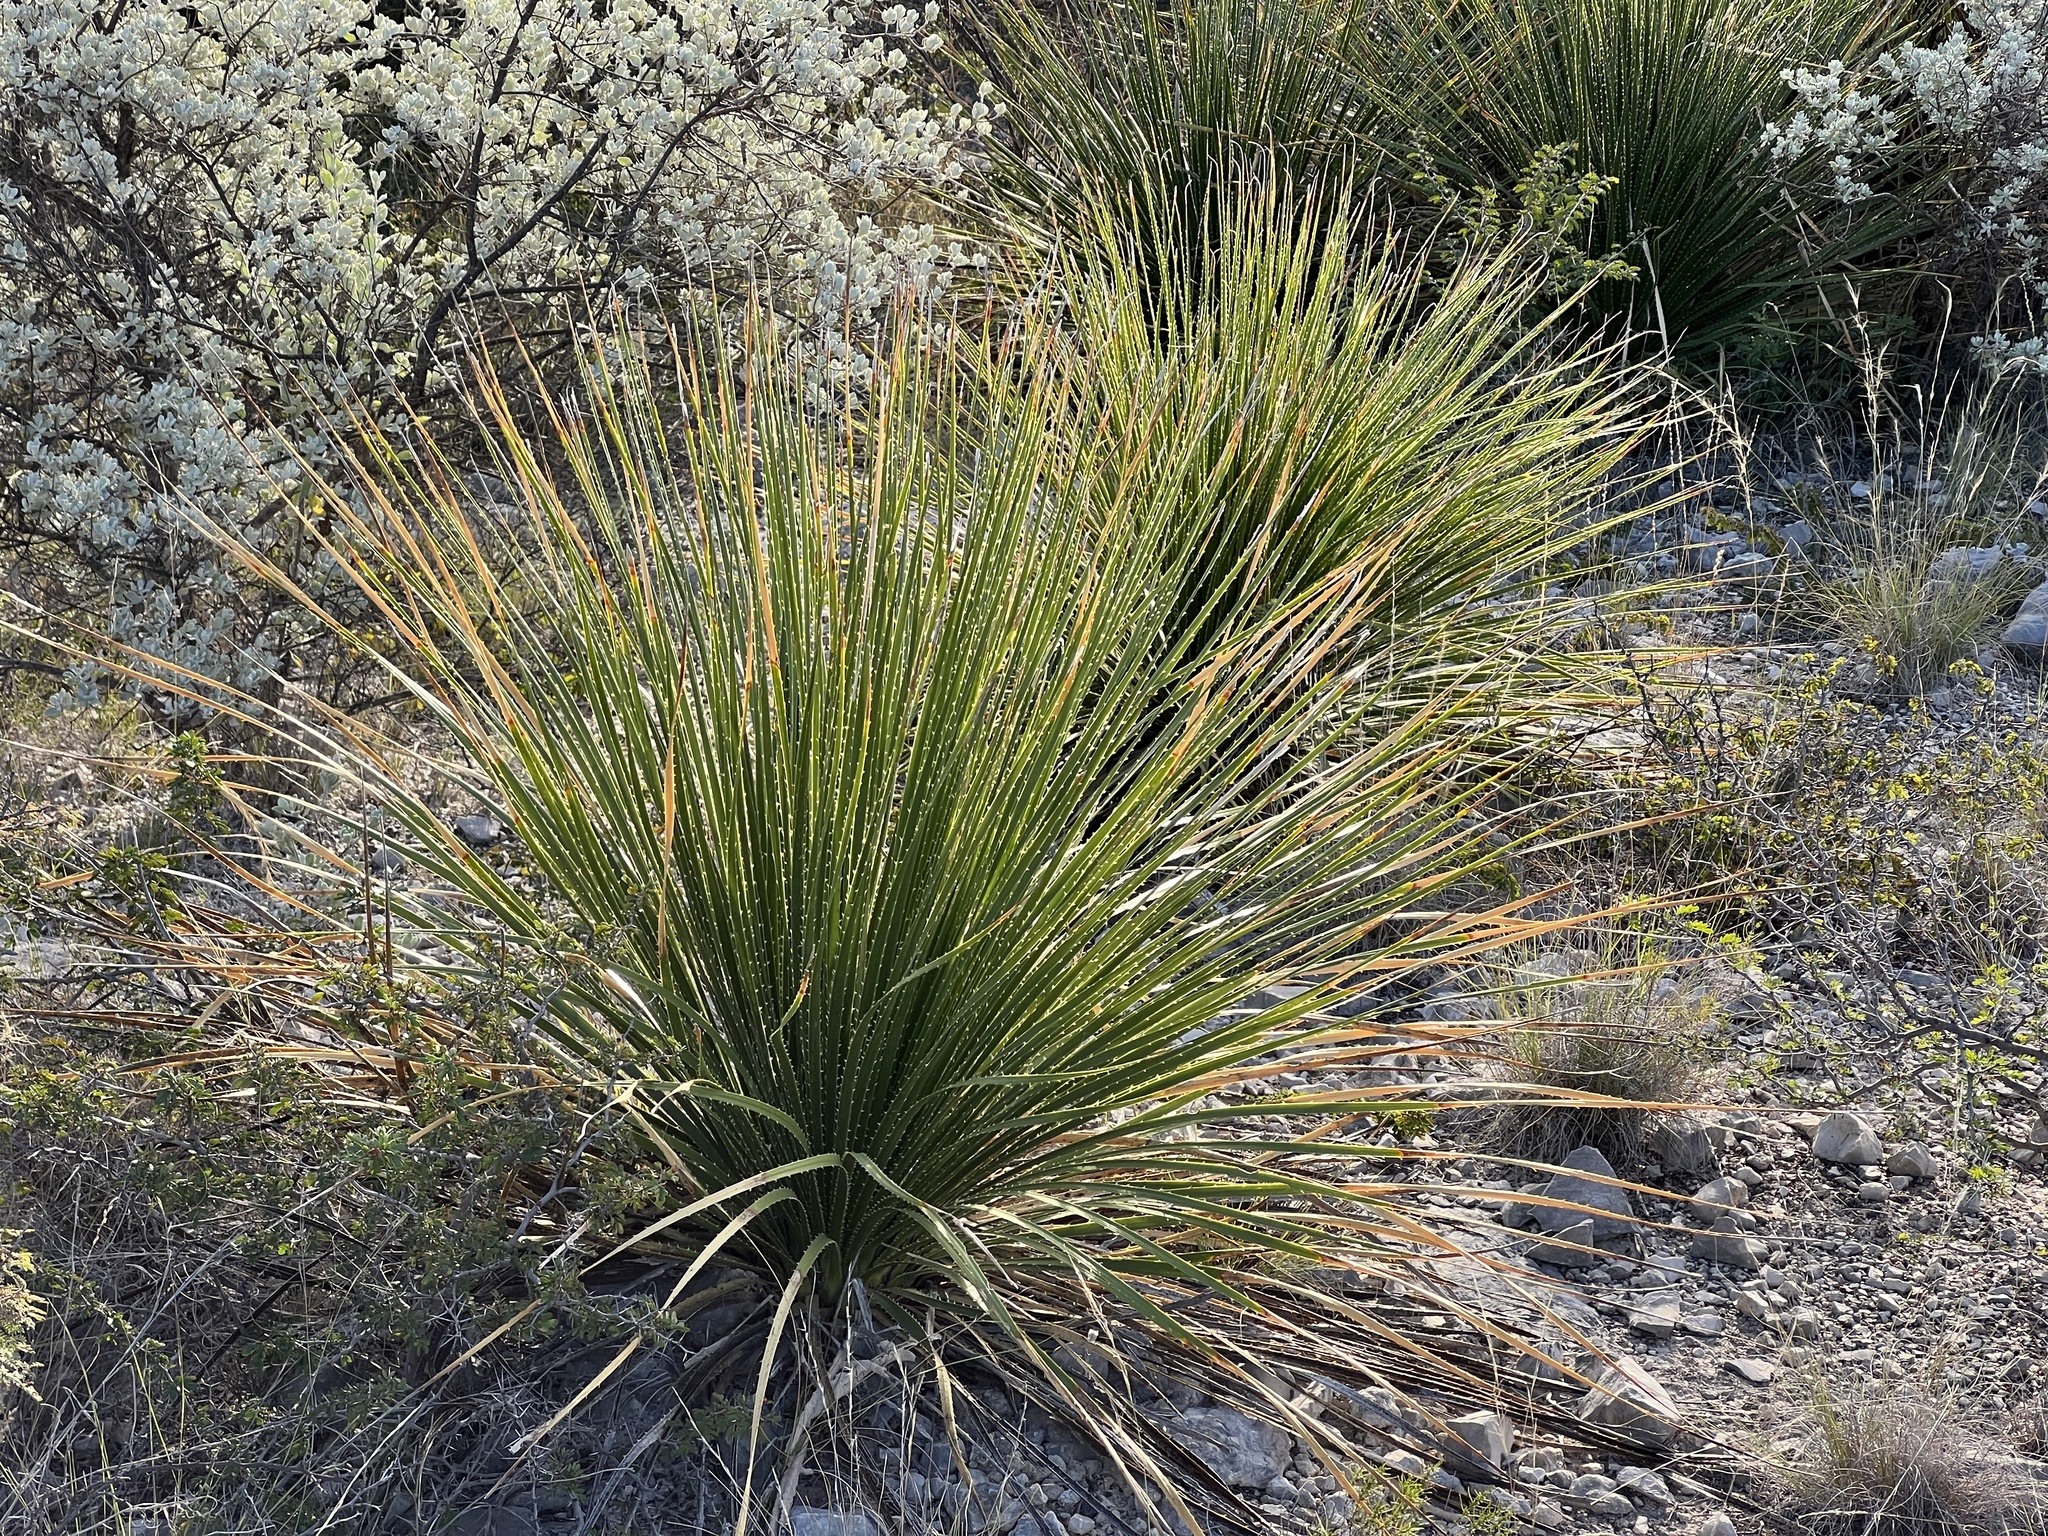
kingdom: Plantae
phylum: Tracheophyta
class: Liliopsida
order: Asparagales
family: Asparagaceae
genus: Dasylirion
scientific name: Dasylirion texanum
